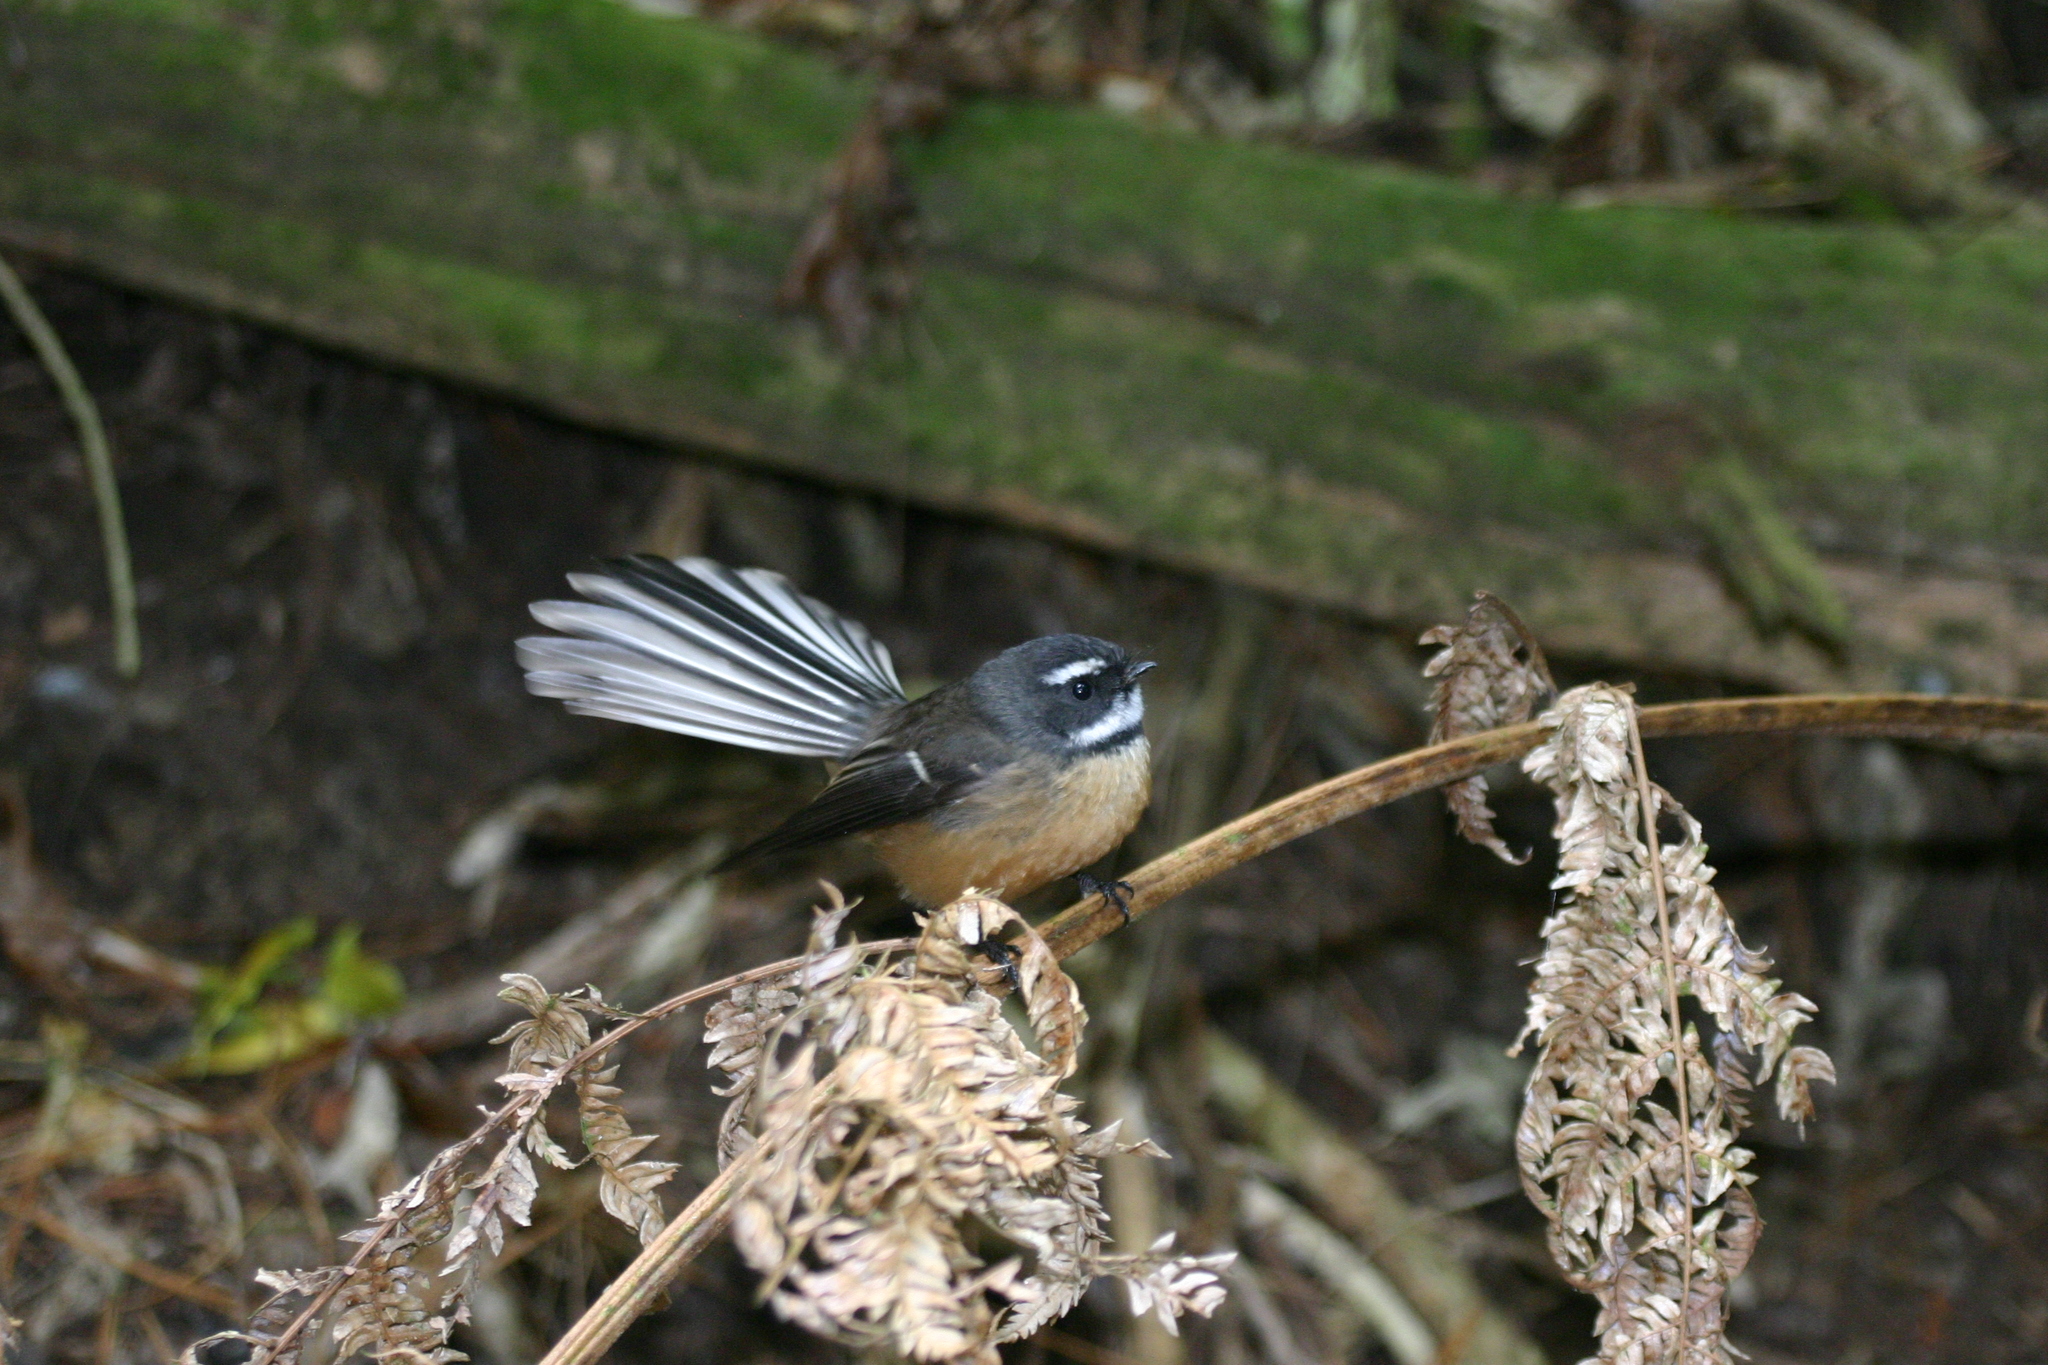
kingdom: Animalia
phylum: Chordata
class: Aves
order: Passeriformes
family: Rhipiduridae
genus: Rhipidura
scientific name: Rhipidura fuliginosa
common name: New zealand fantail
